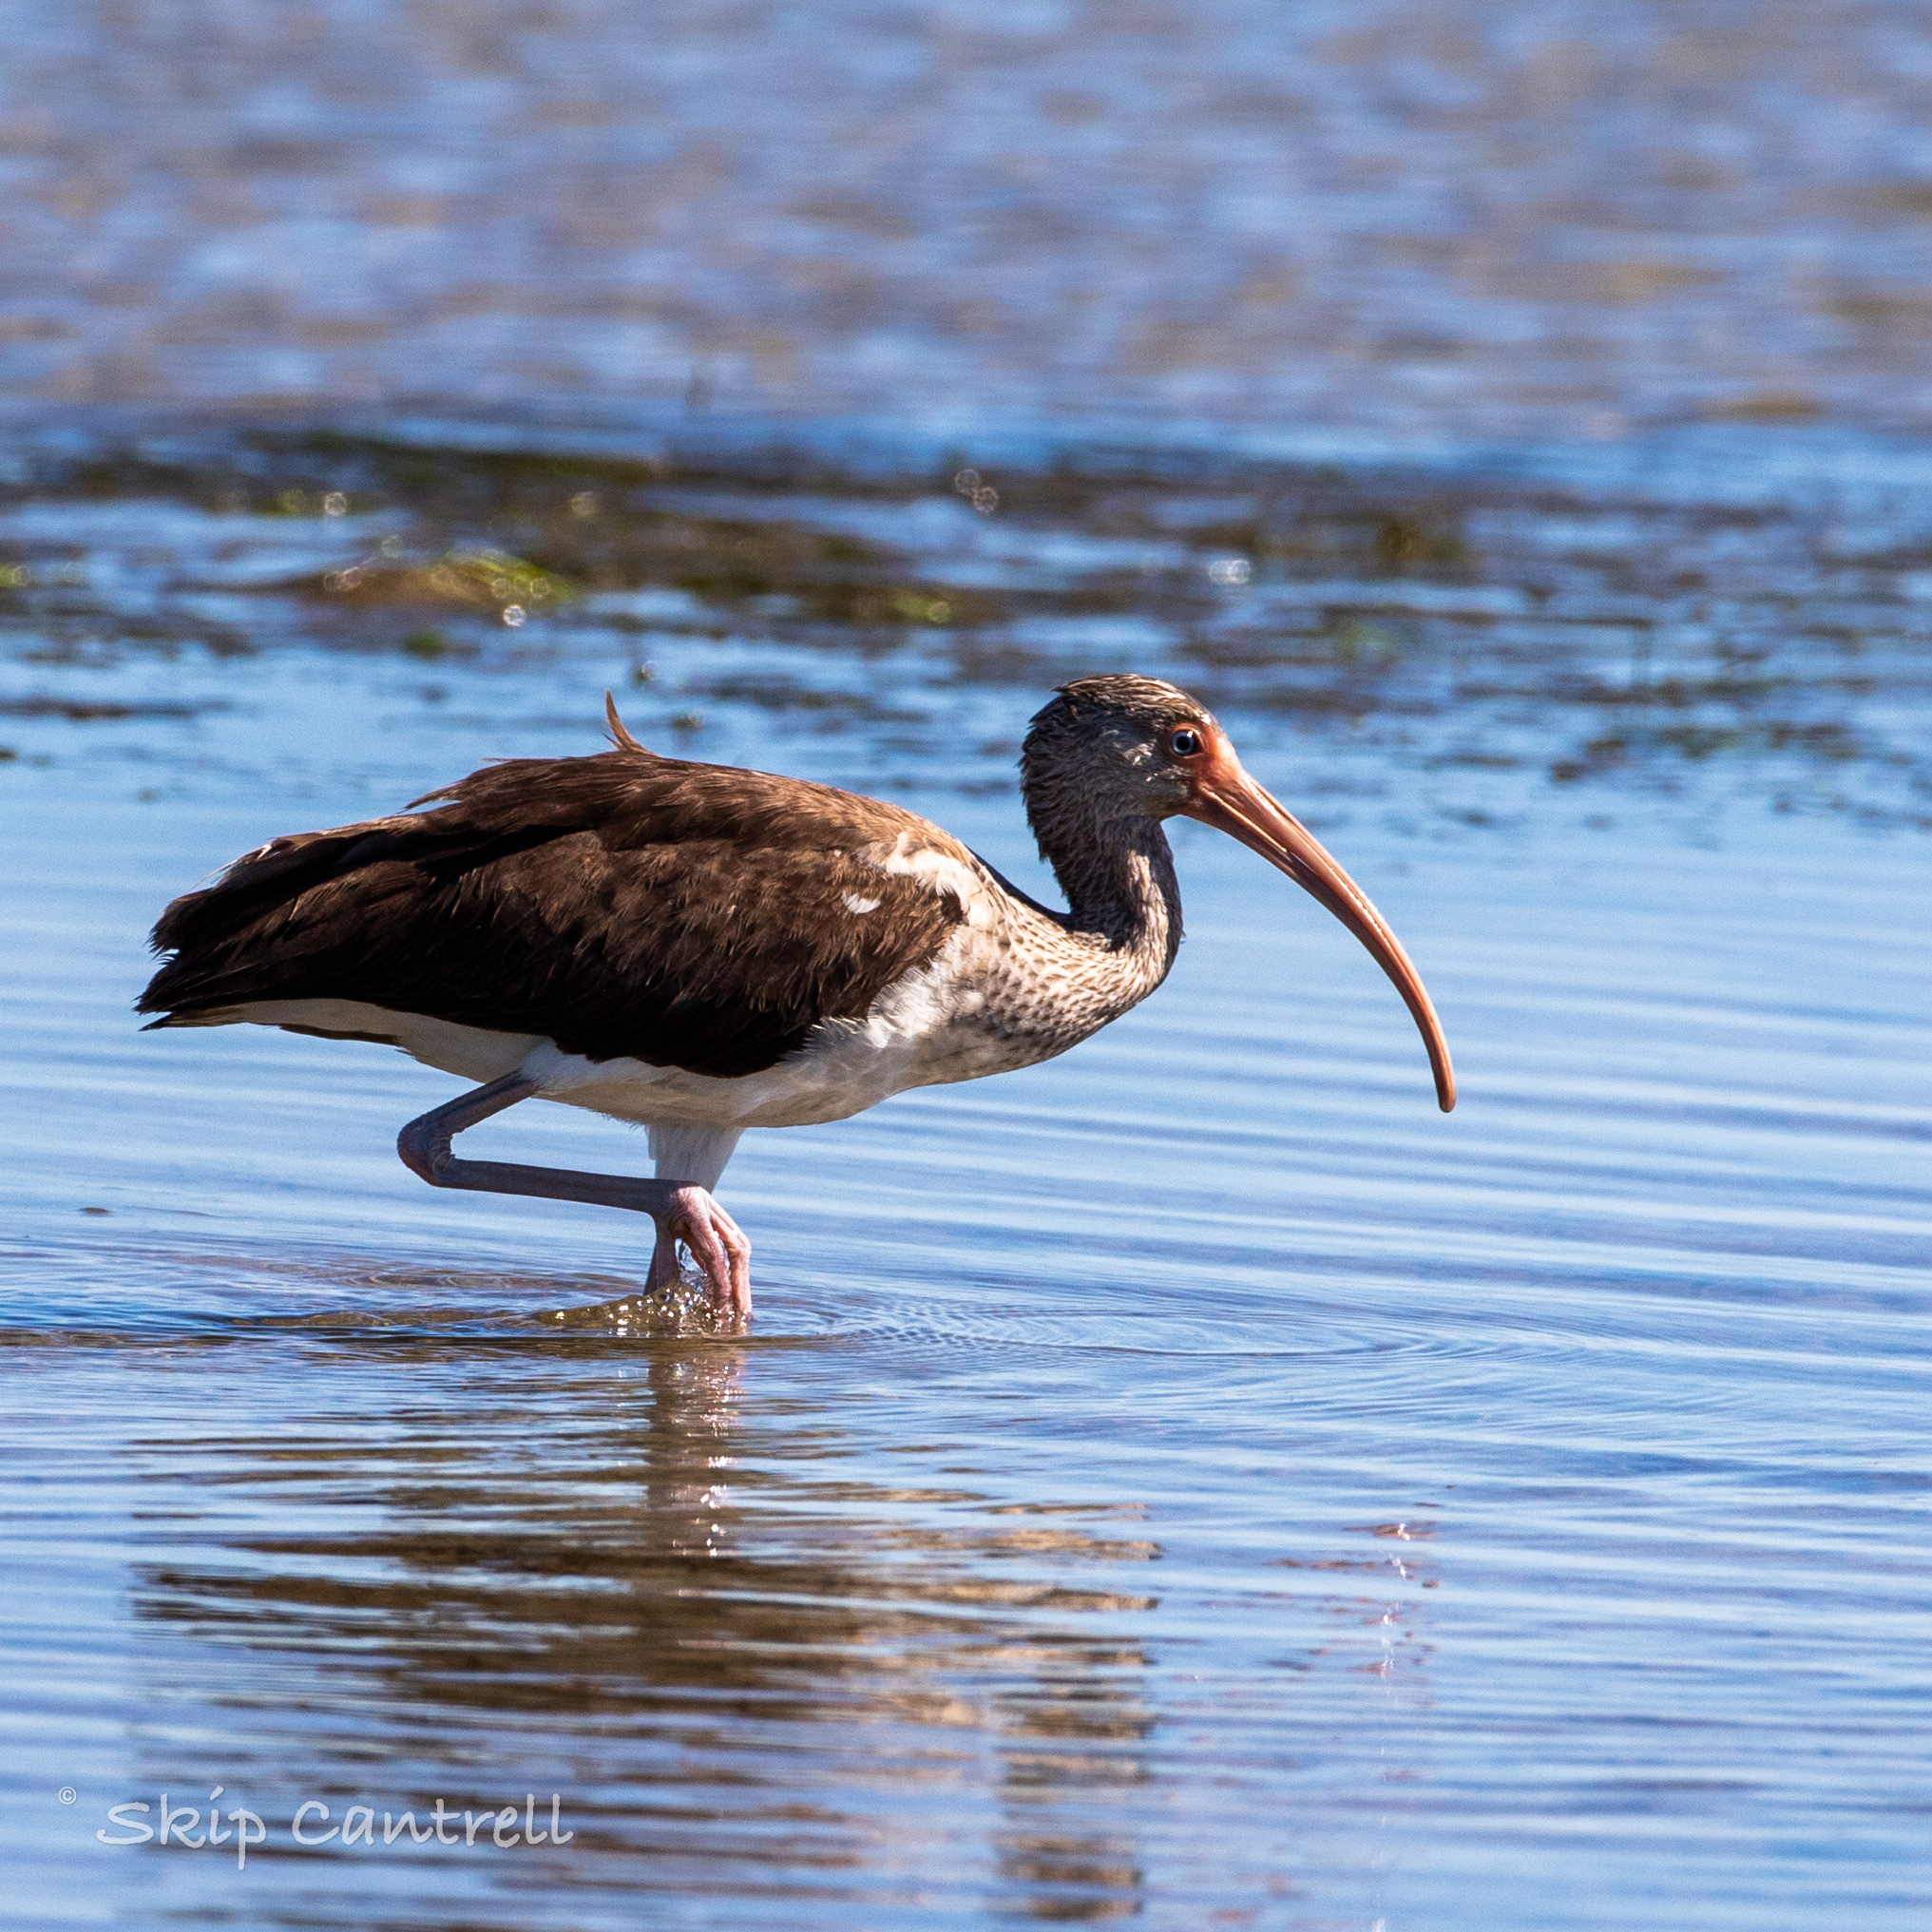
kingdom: Animalia
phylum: Chordata
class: Aves
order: Pelecaniformes
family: Threskiornithidae
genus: Eudocimus
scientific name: Eudocimus albus
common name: White ibis
